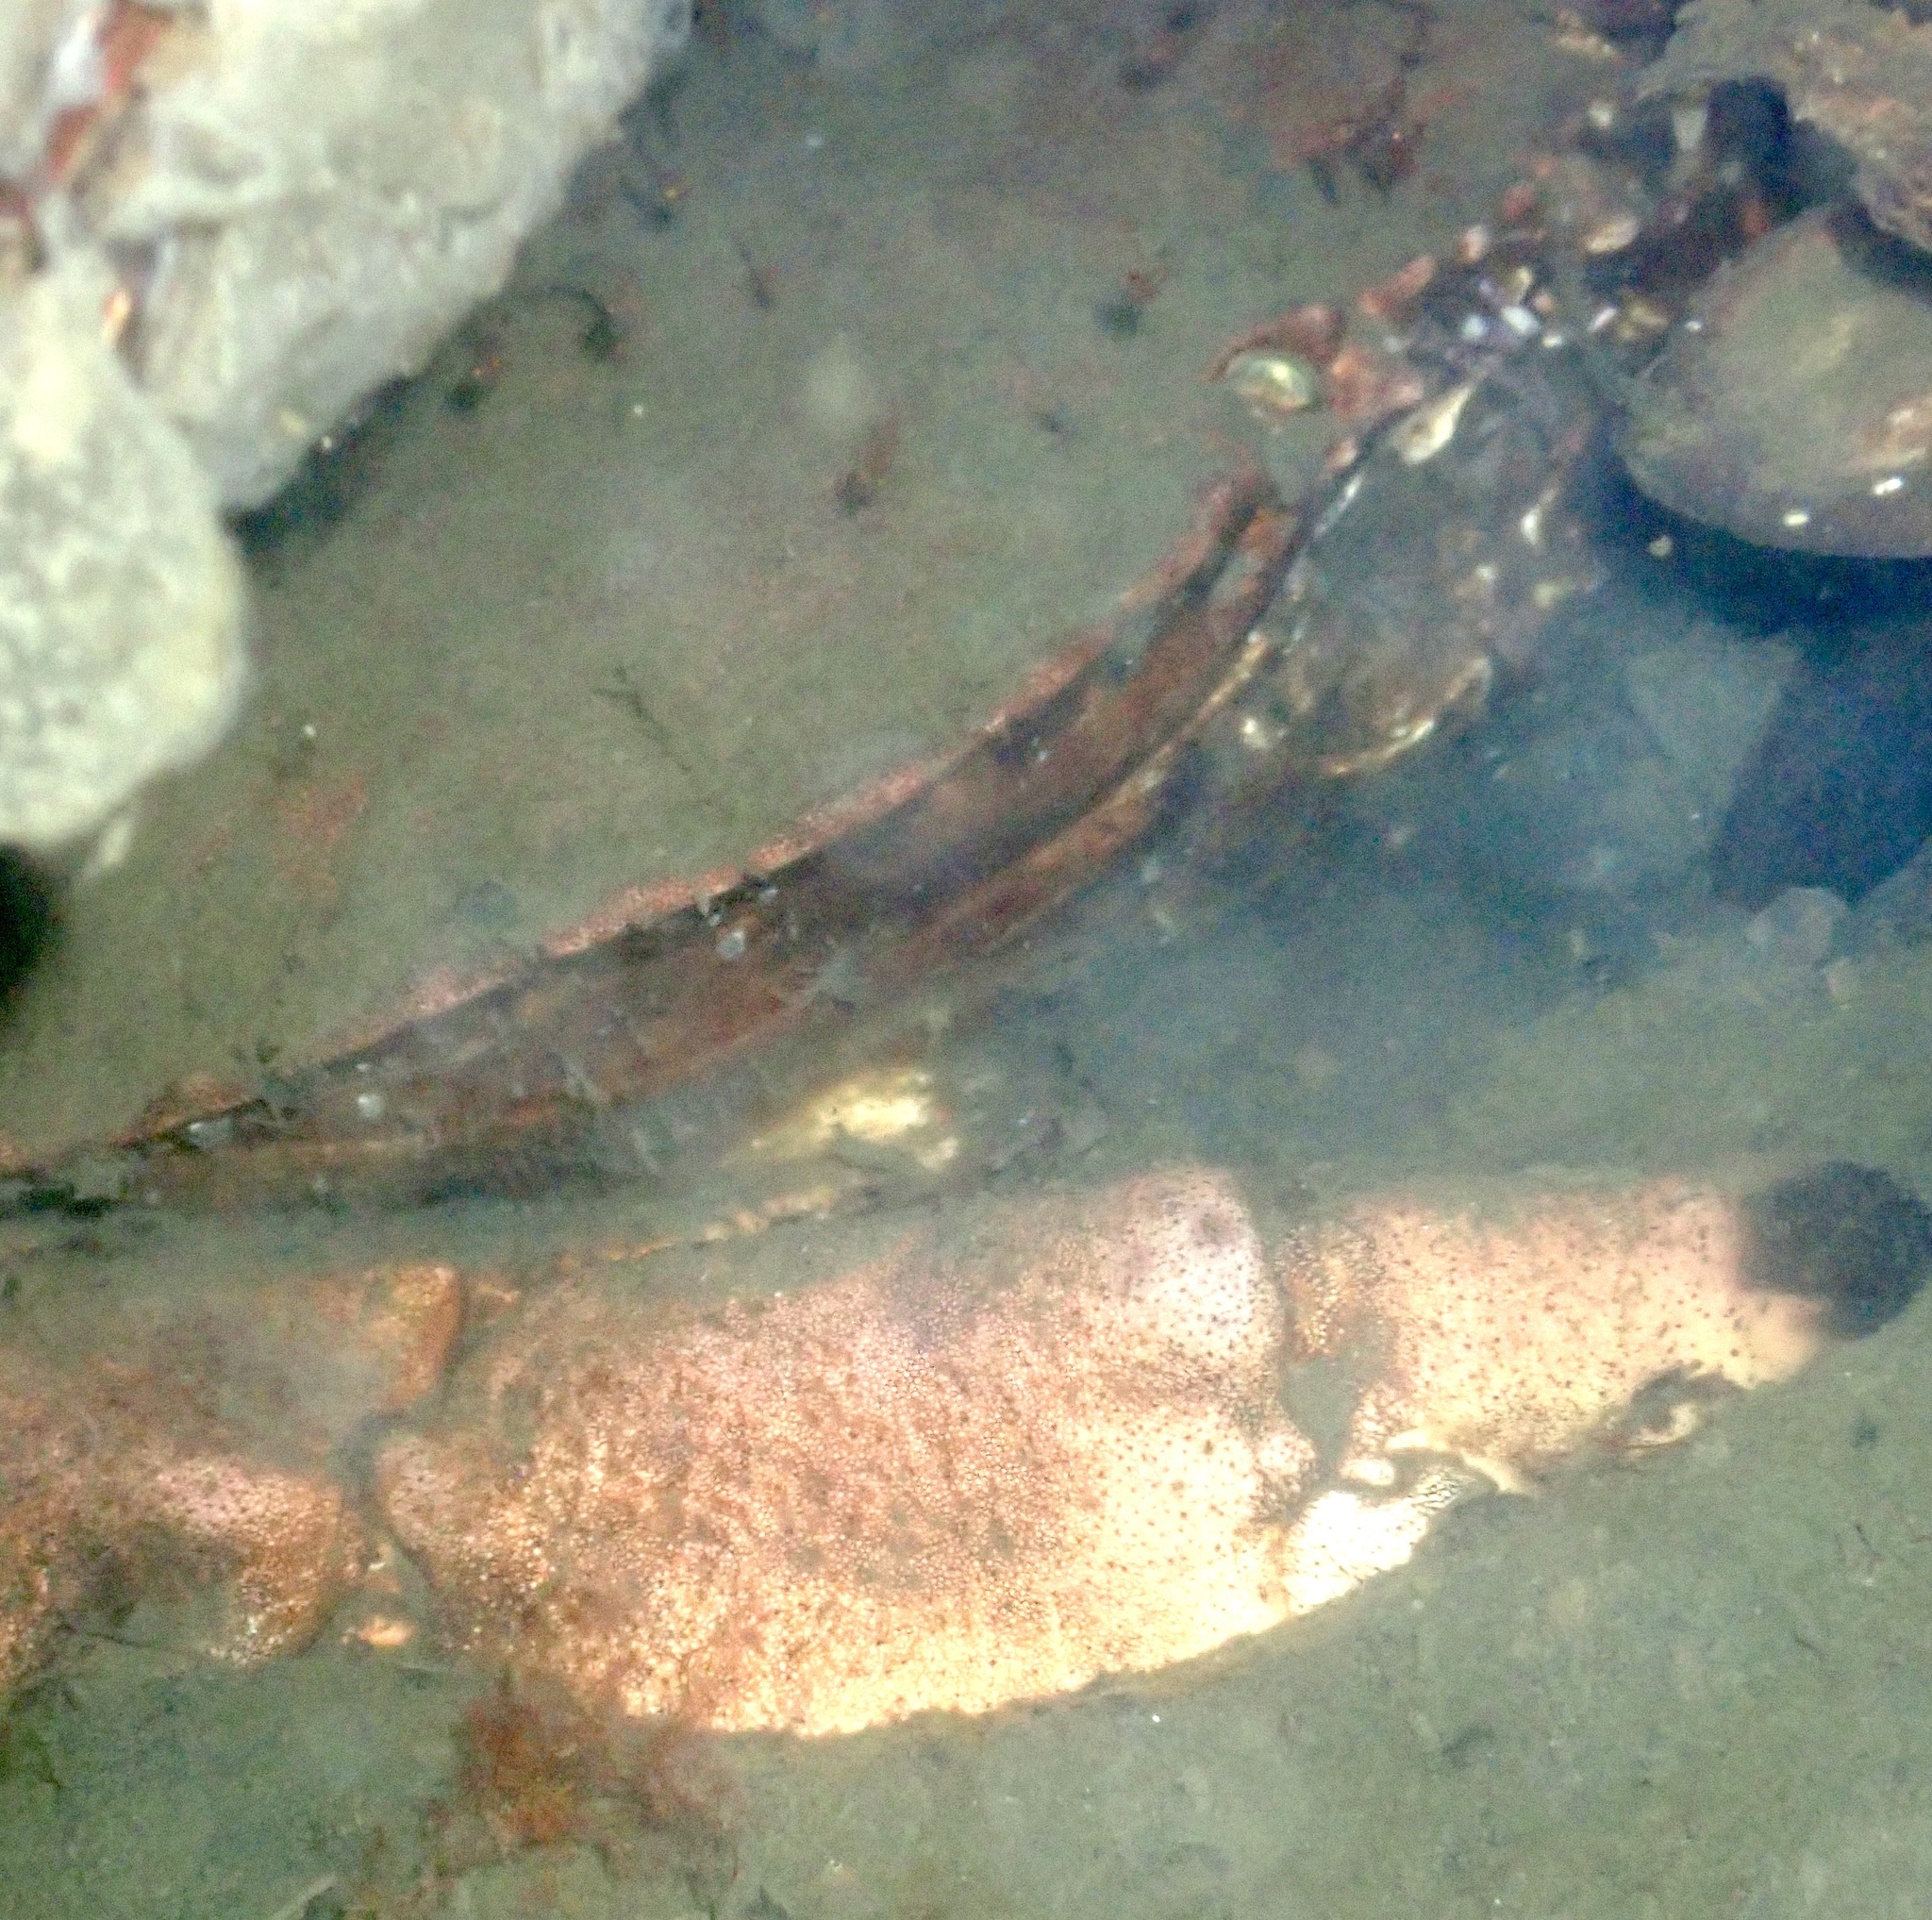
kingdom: Animalia
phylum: Arthropoda
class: Malacostraca
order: Decapoda
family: Cancridae
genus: Cancer
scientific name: Cancer pagurus
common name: Edible crab
